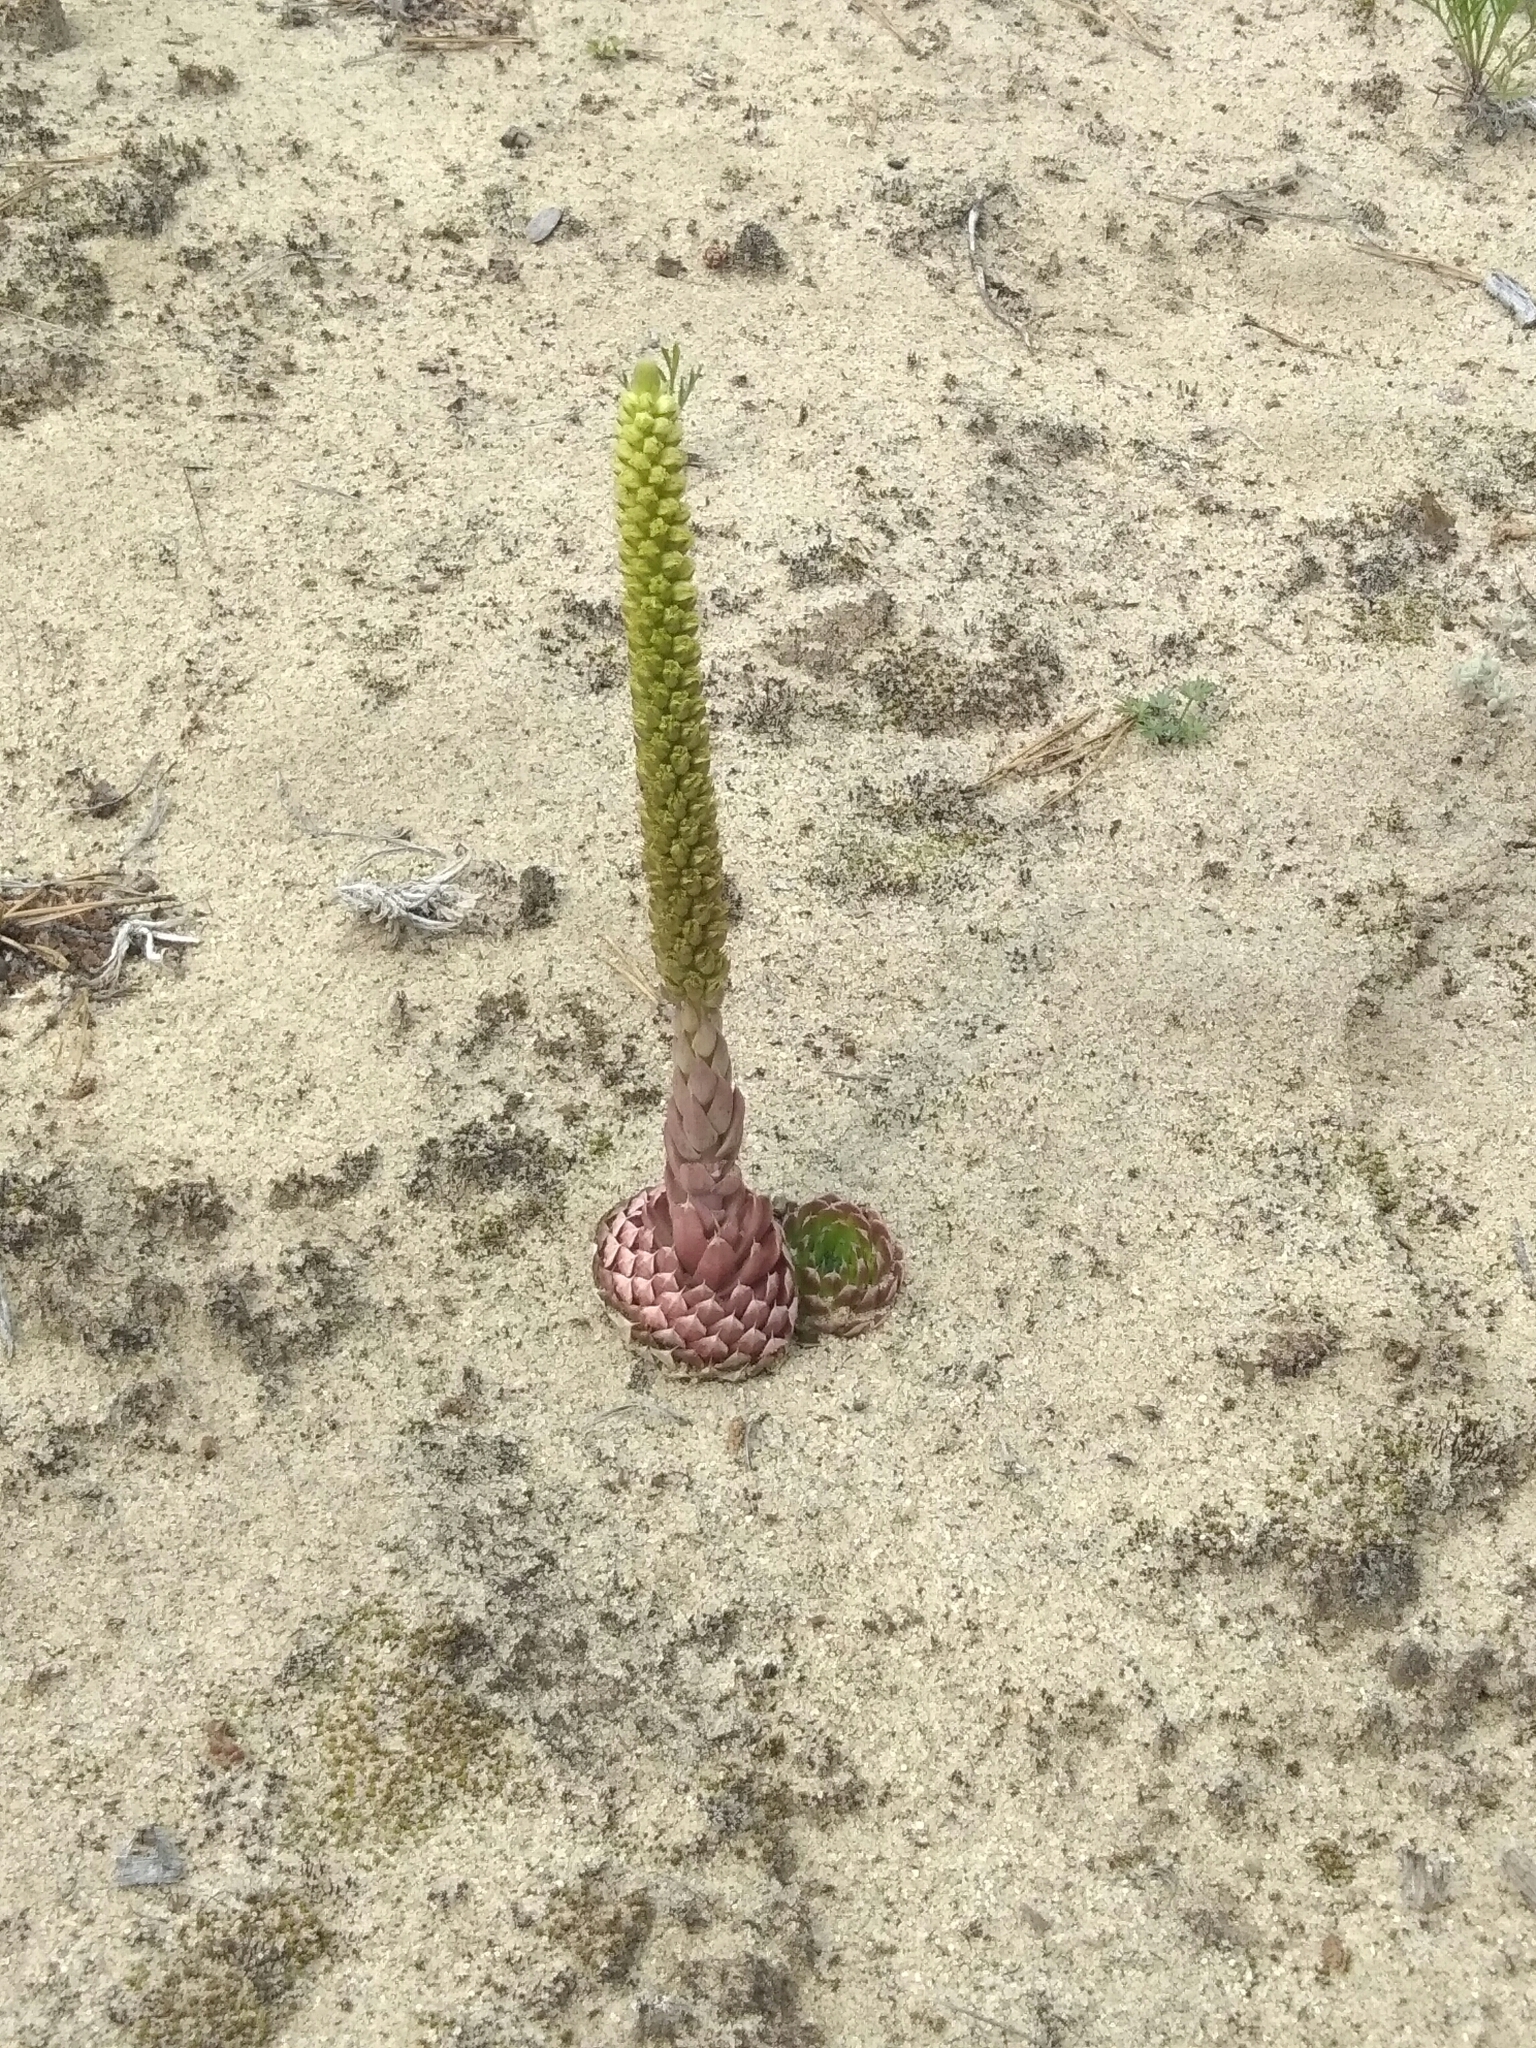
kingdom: Plantae
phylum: Tracheophyta
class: Magnoliopsida
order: Saxifragales
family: Crassulaceae
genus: Orostachys
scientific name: Orostachys spinosa
